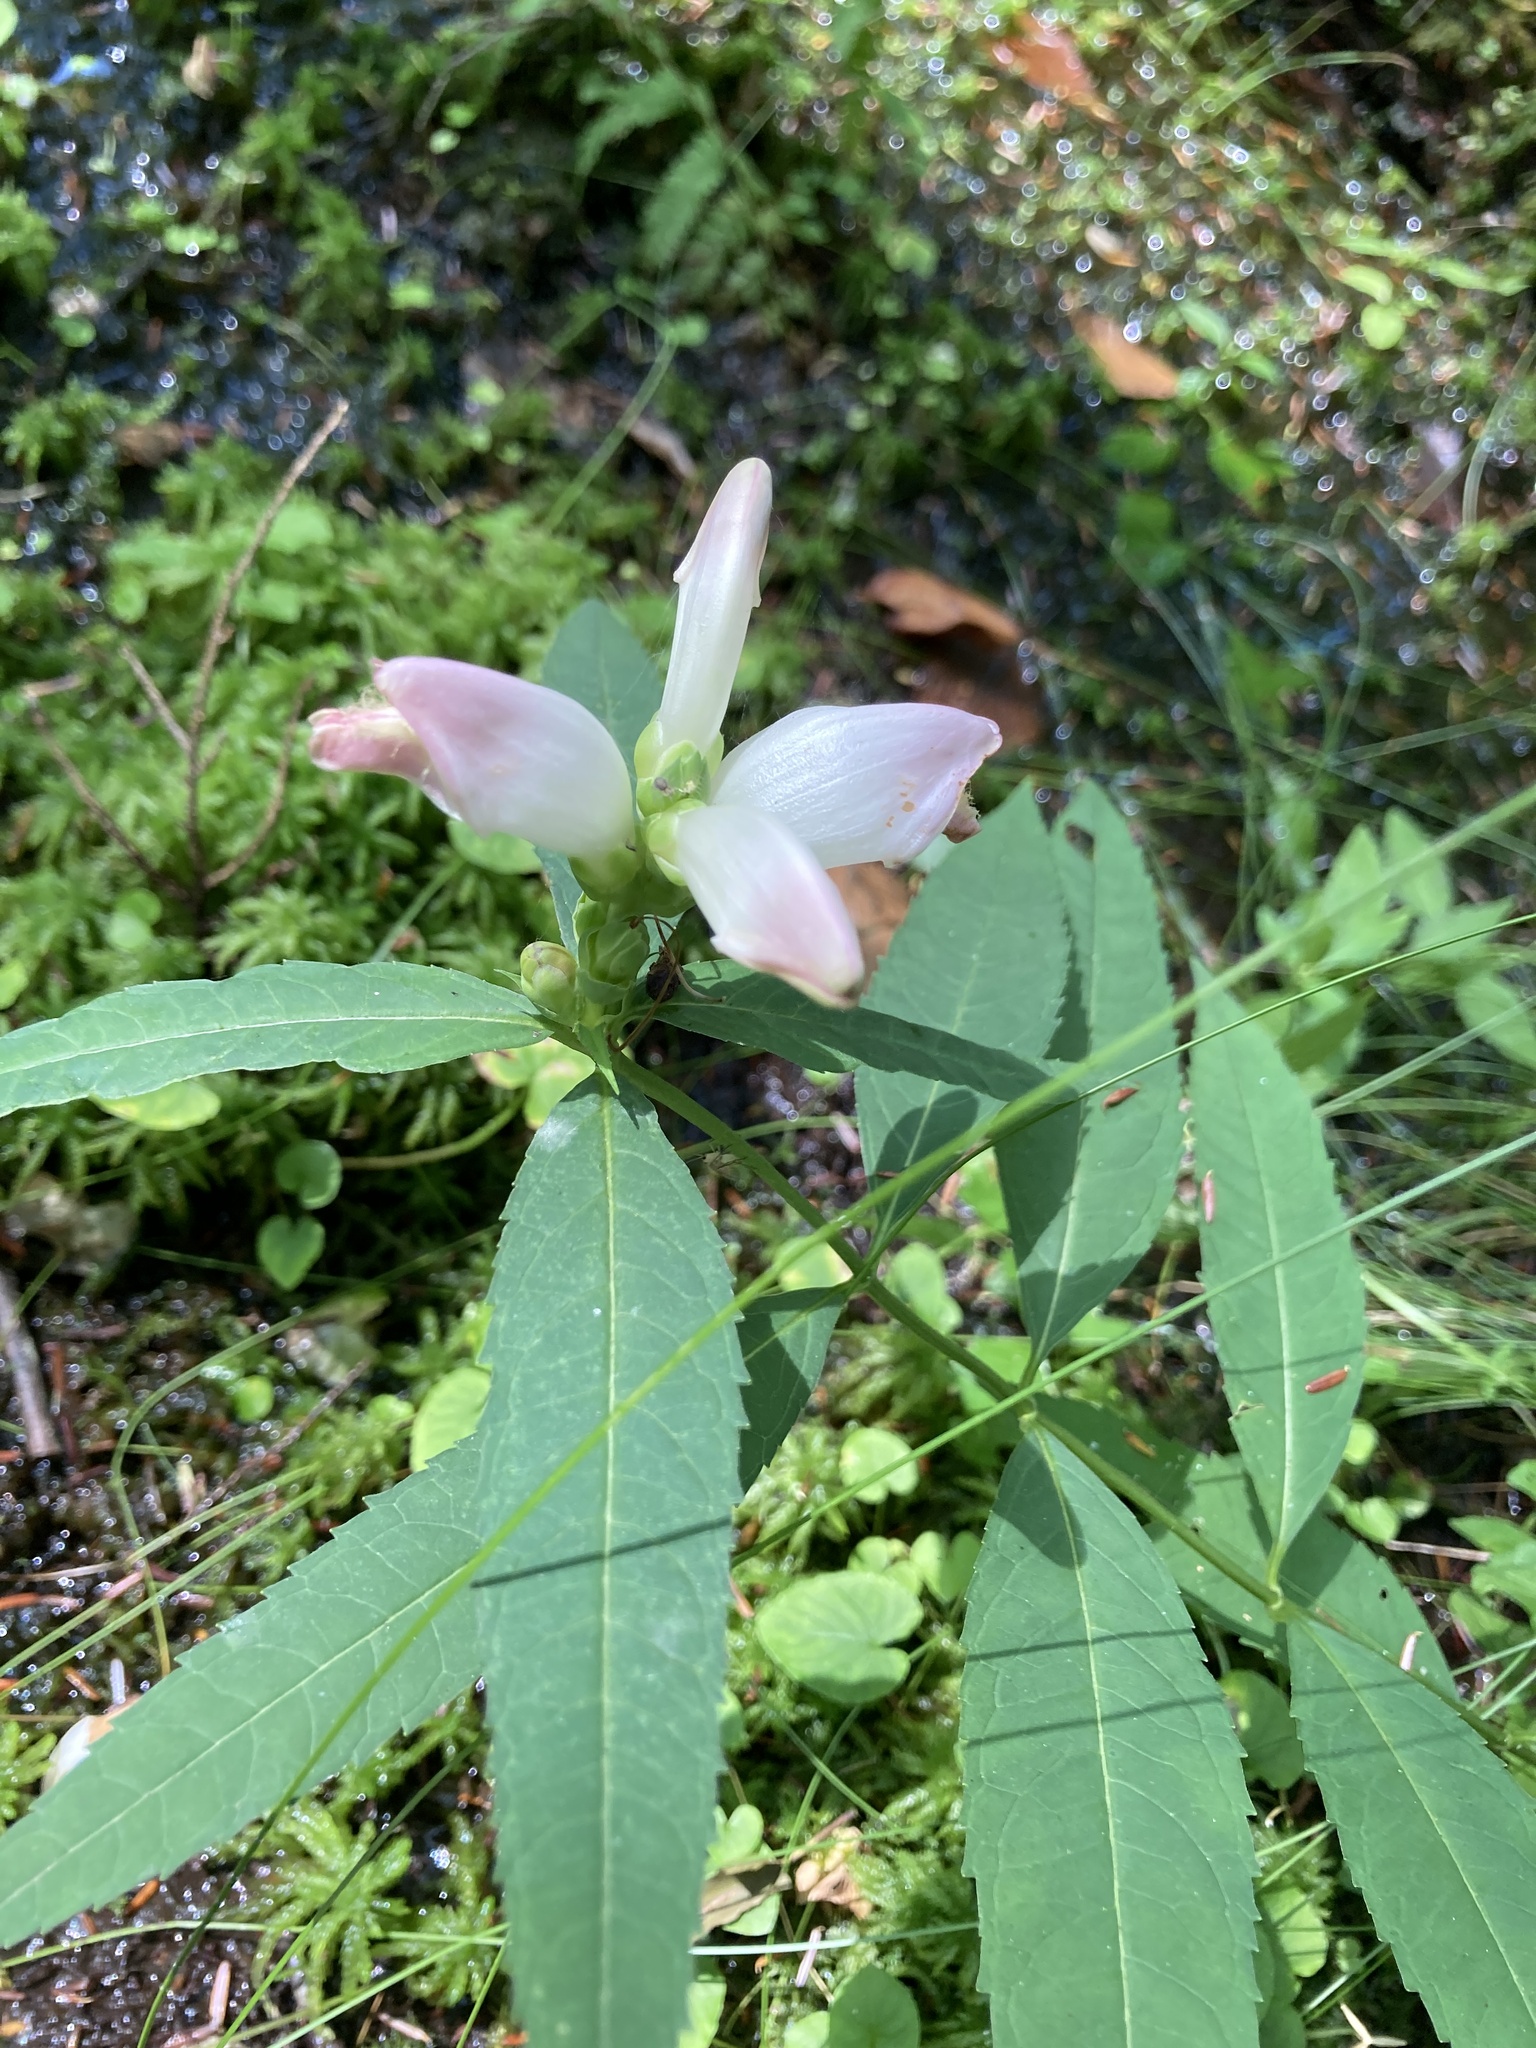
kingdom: Plantae
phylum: Tracheophyta
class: Magnoliopsida
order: Lamiales
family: Plantaginaceae
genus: Chelone
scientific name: Chelone glabra
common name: Snakehead
